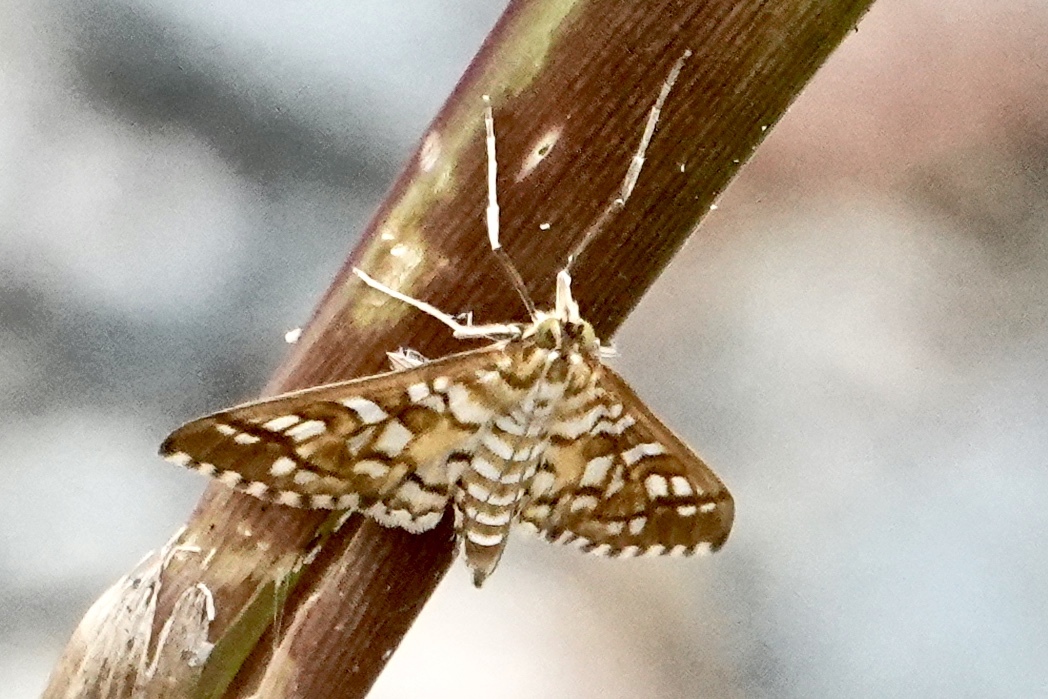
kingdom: Animalia
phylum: Arthropoda
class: Insecta
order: Lepidoptera
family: Crambidae
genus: Epipagis
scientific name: Epipagis fenestralis
